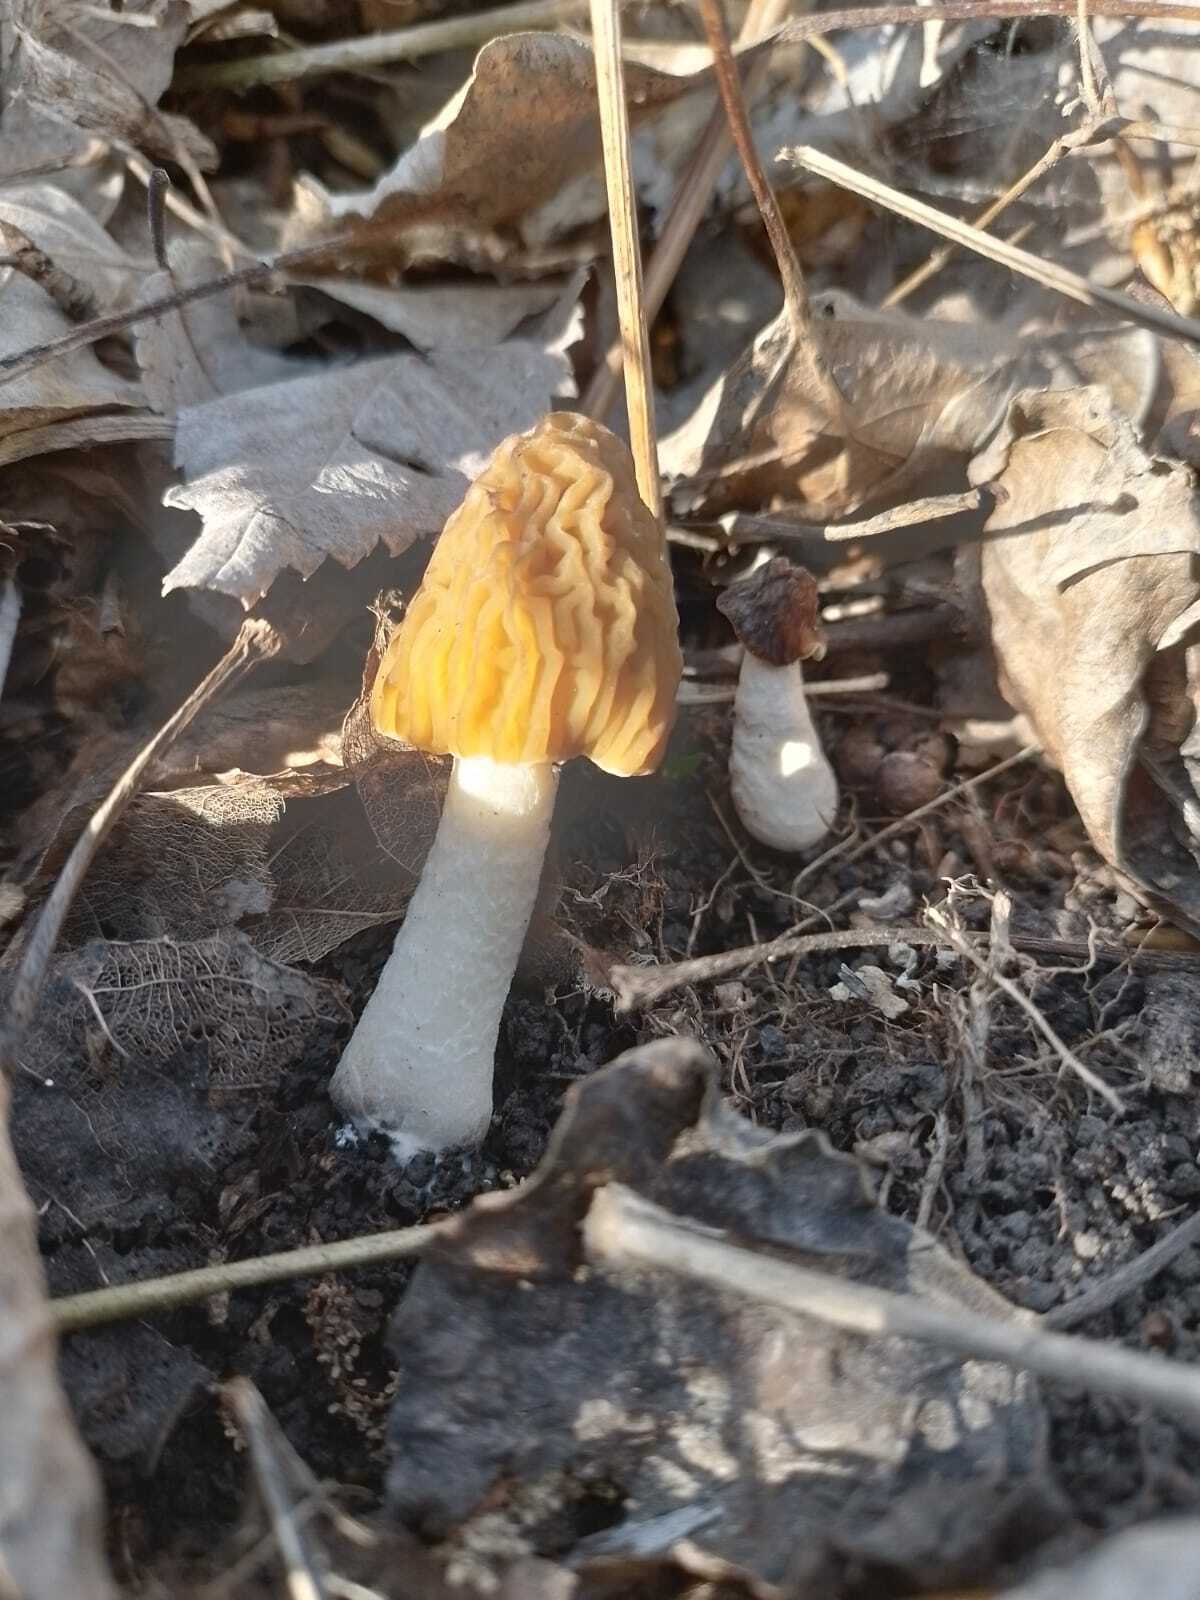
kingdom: Fungi
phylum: Ascomycota
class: Pezizomycetes
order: Pezizales
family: Morchellaceae
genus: Verpa
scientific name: Verpa bohemica
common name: Wrinkled thimble morel
